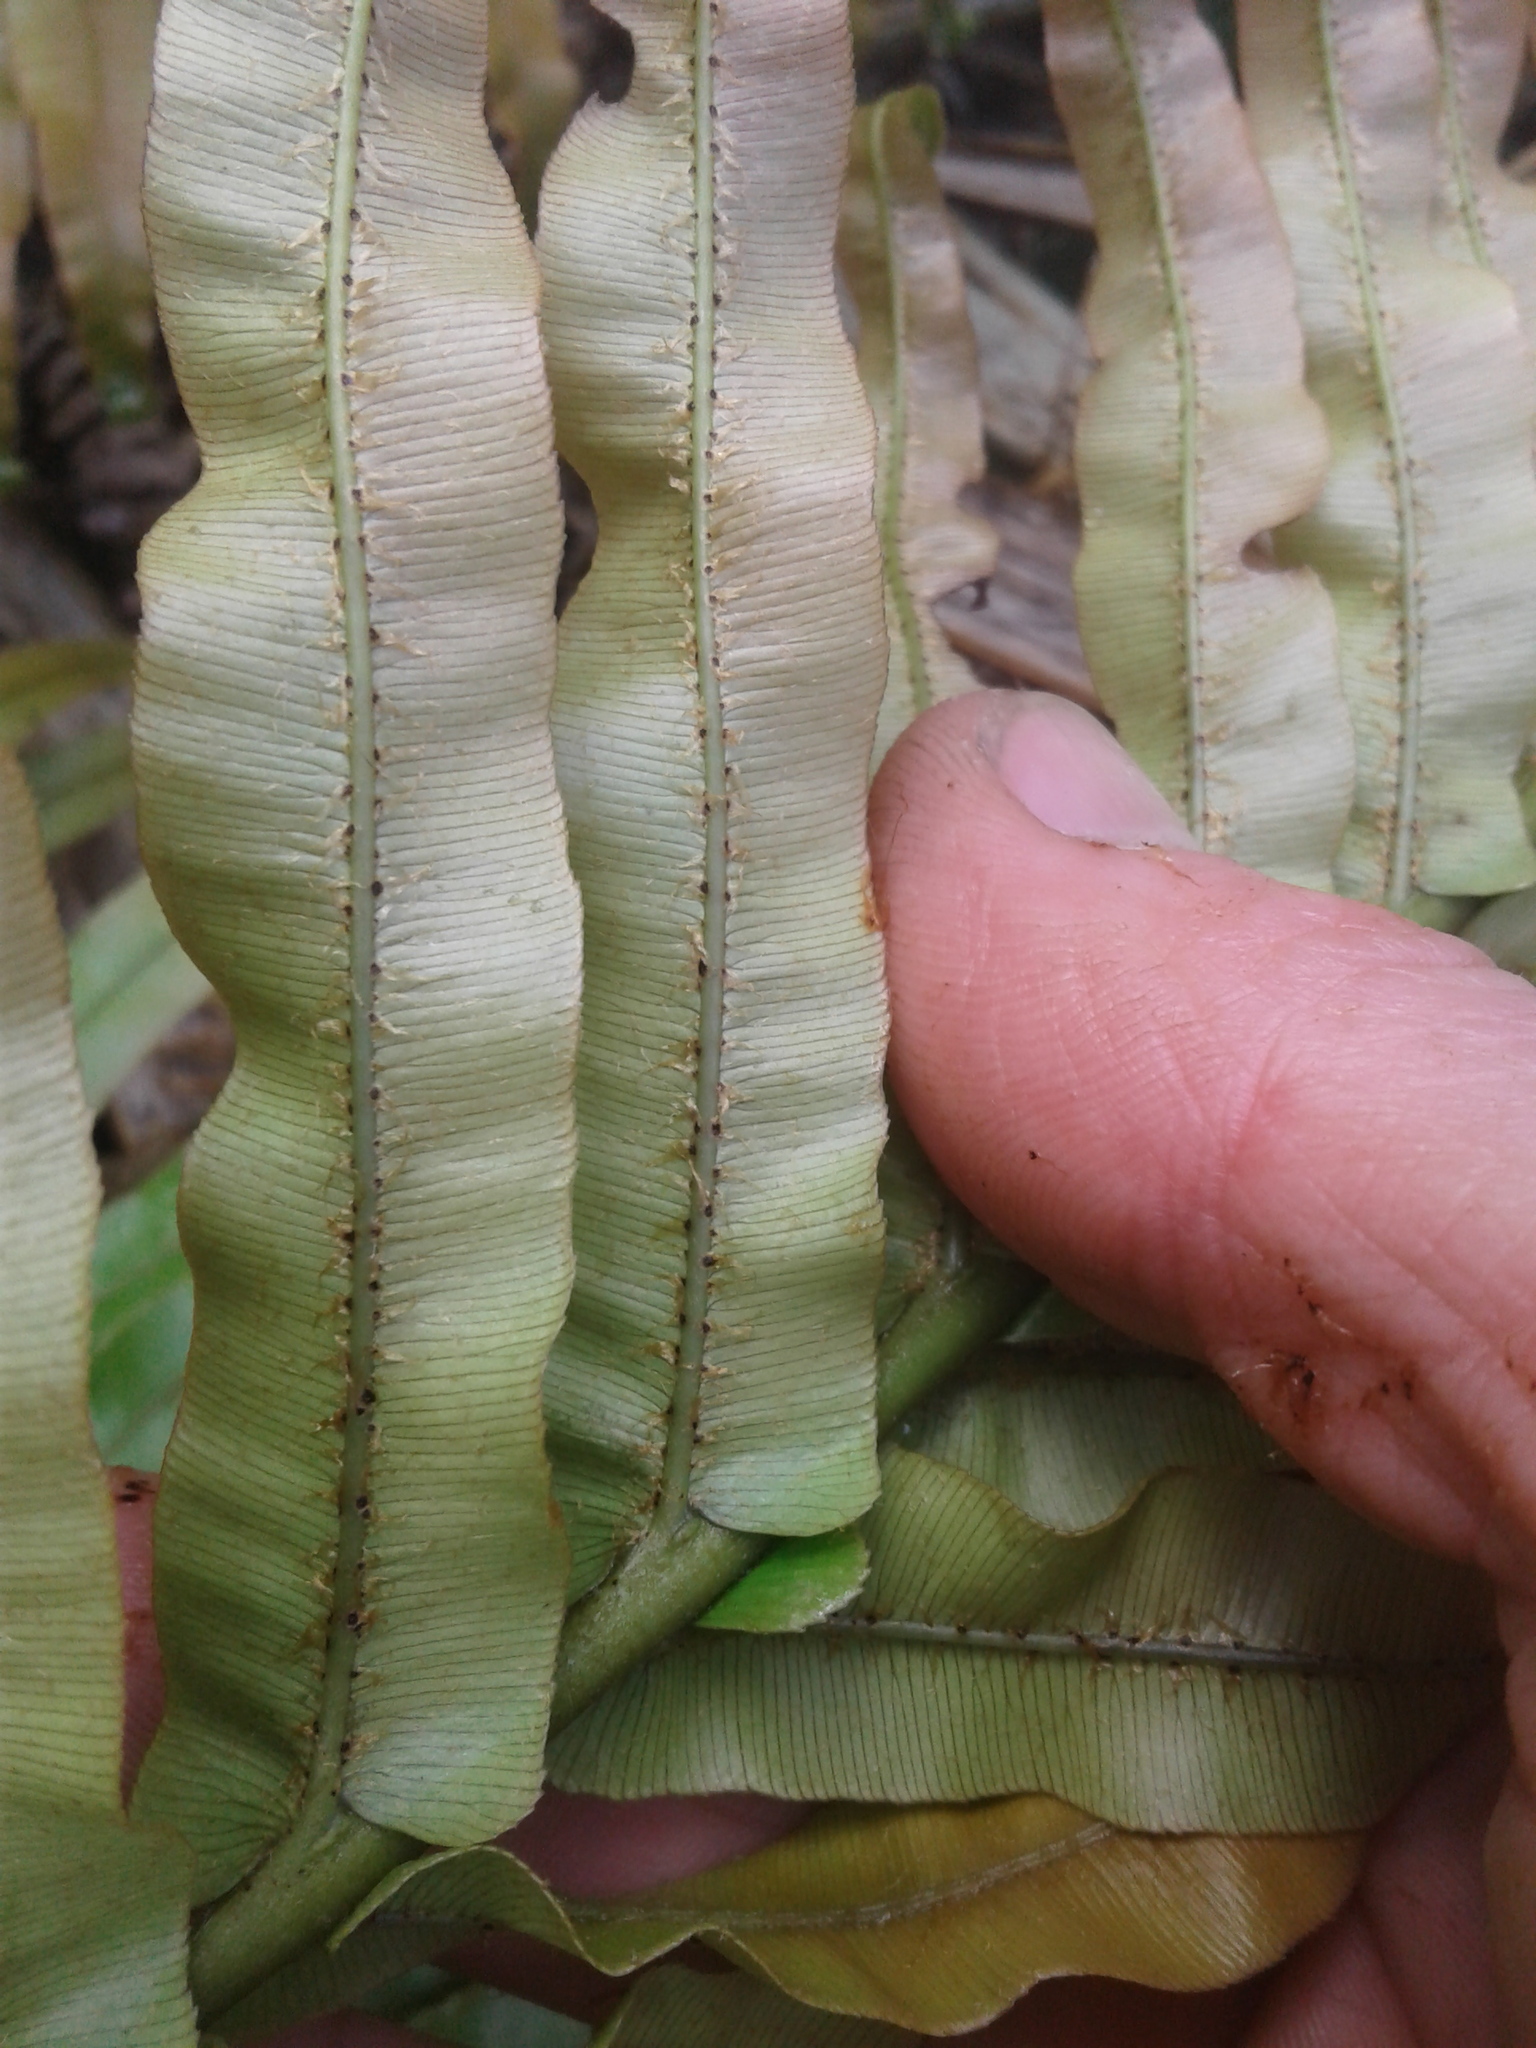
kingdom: Plantae
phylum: Tracheophyta
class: Polypodiopsida
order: Polypodiales
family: Blechnaceae
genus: Parablechnum
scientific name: Parablechnum novae-zelandiae
